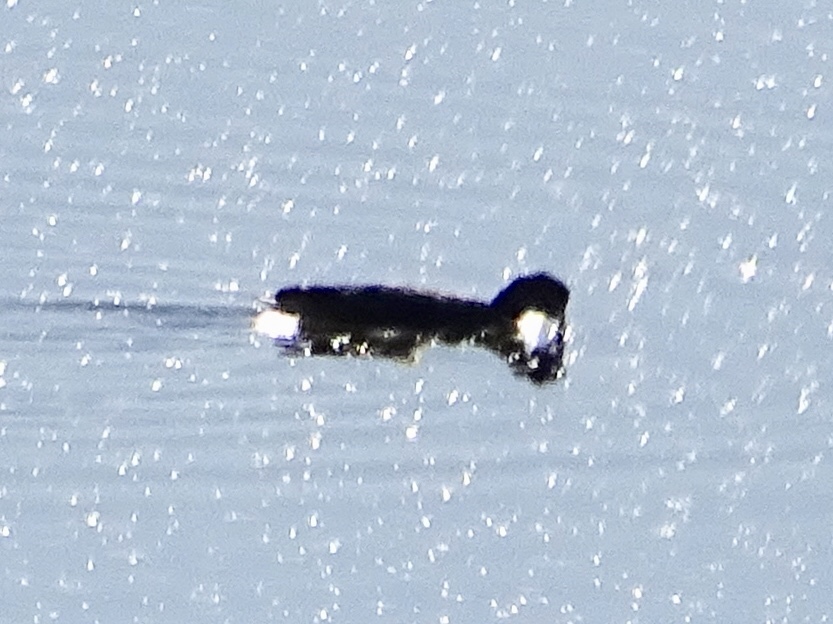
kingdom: Animalia
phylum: Chordata
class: Aves
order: Gruiformes
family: Rallidae
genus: Fulica
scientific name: Fulica americana
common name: American coot
